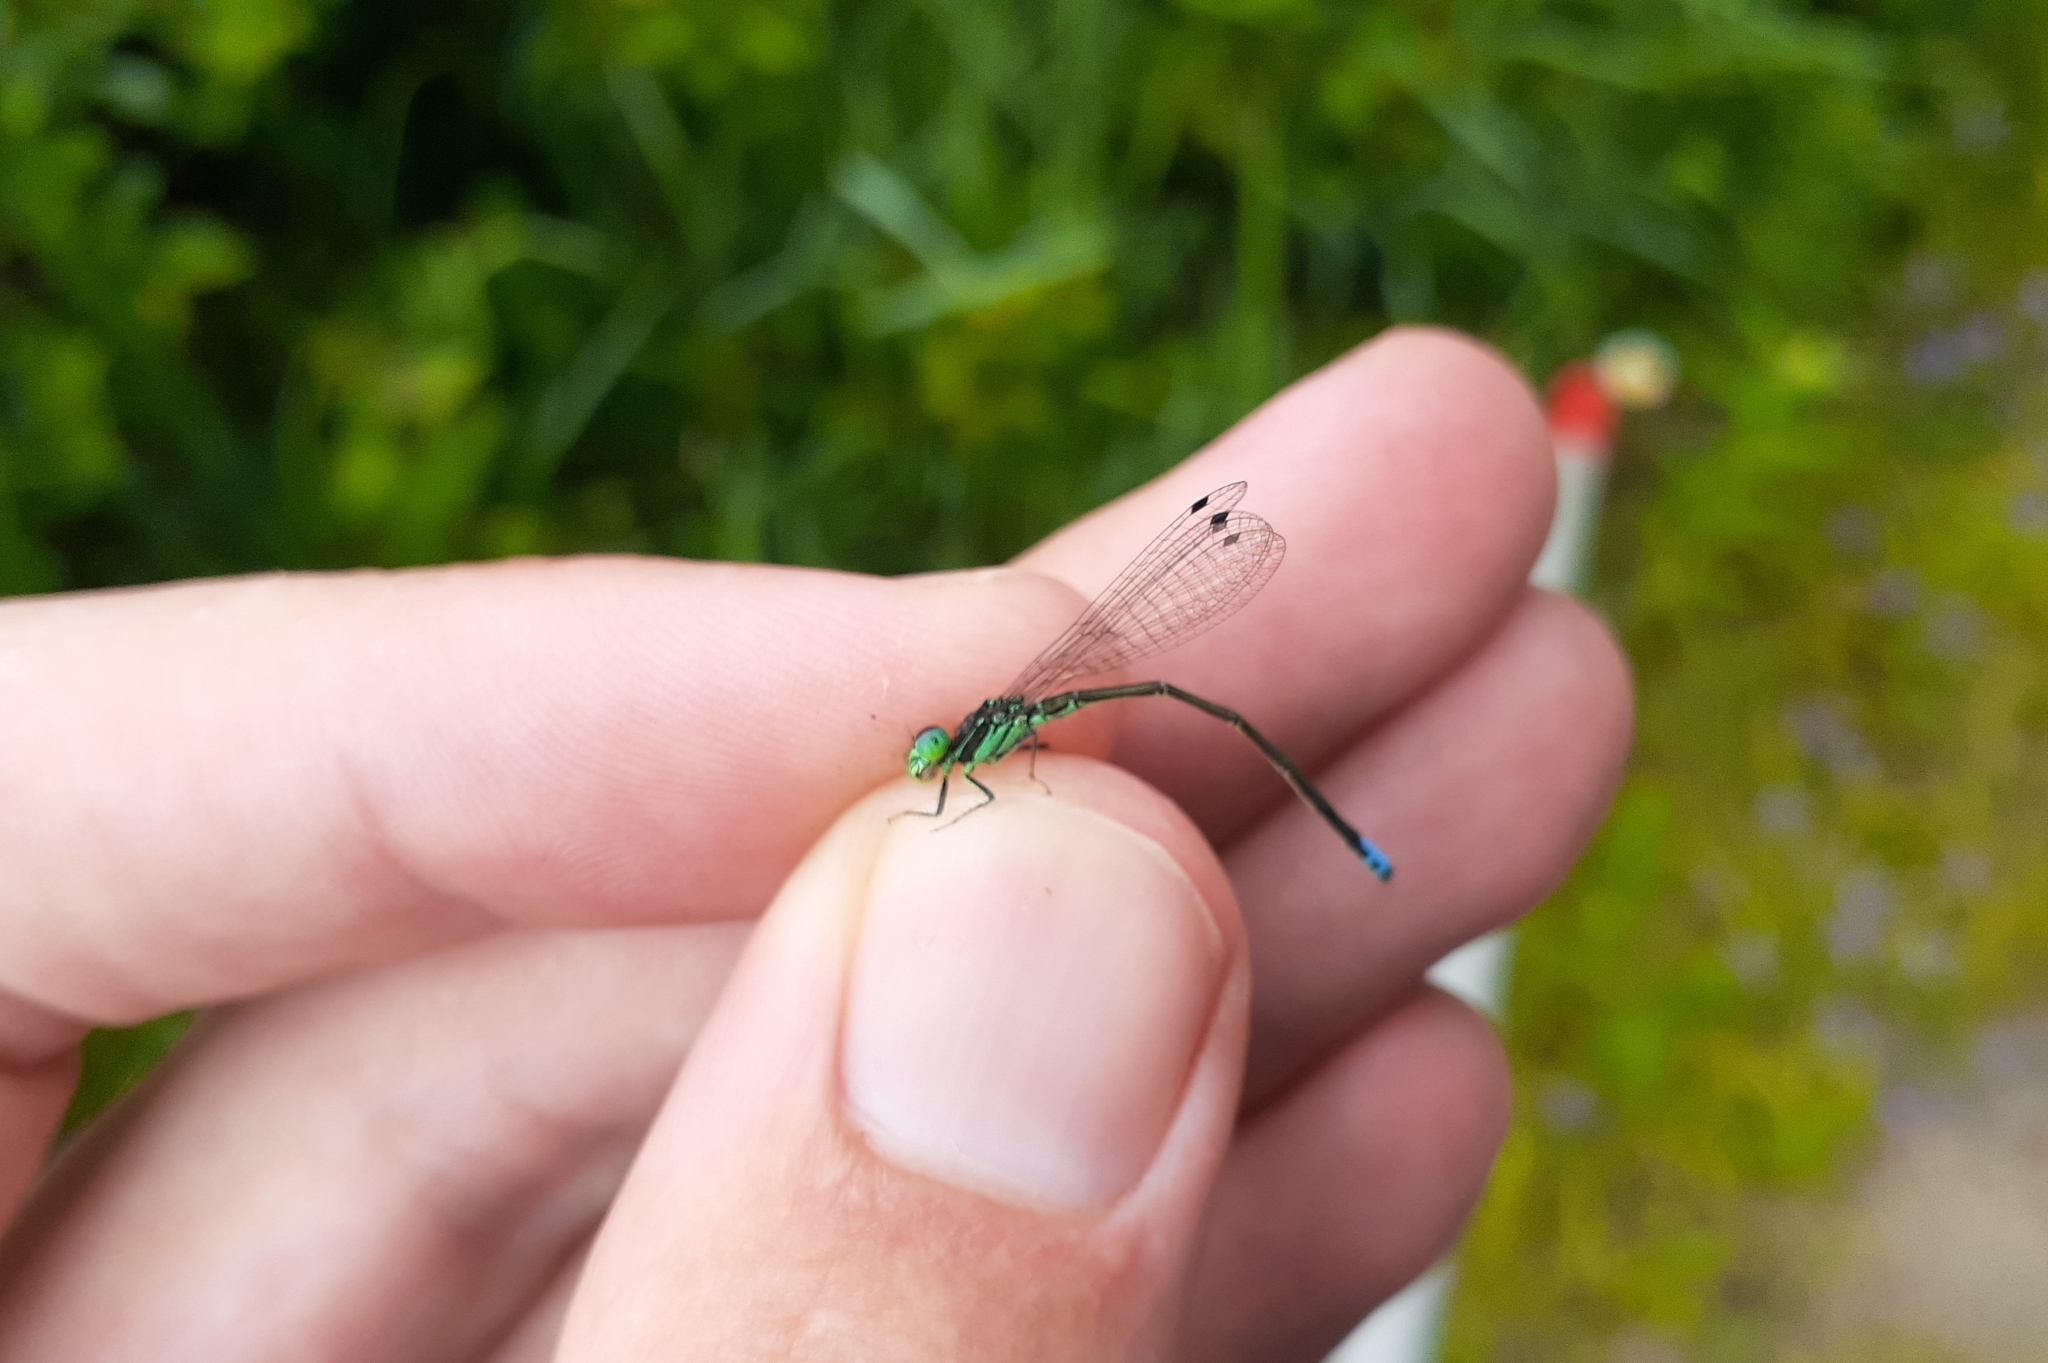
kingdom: Animalia
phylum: Arthropoda
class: Insecta
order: Odonata
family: Coenagrionidae
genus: Ischnura
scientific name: Ischnura verticalis
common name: Eastern forktail
